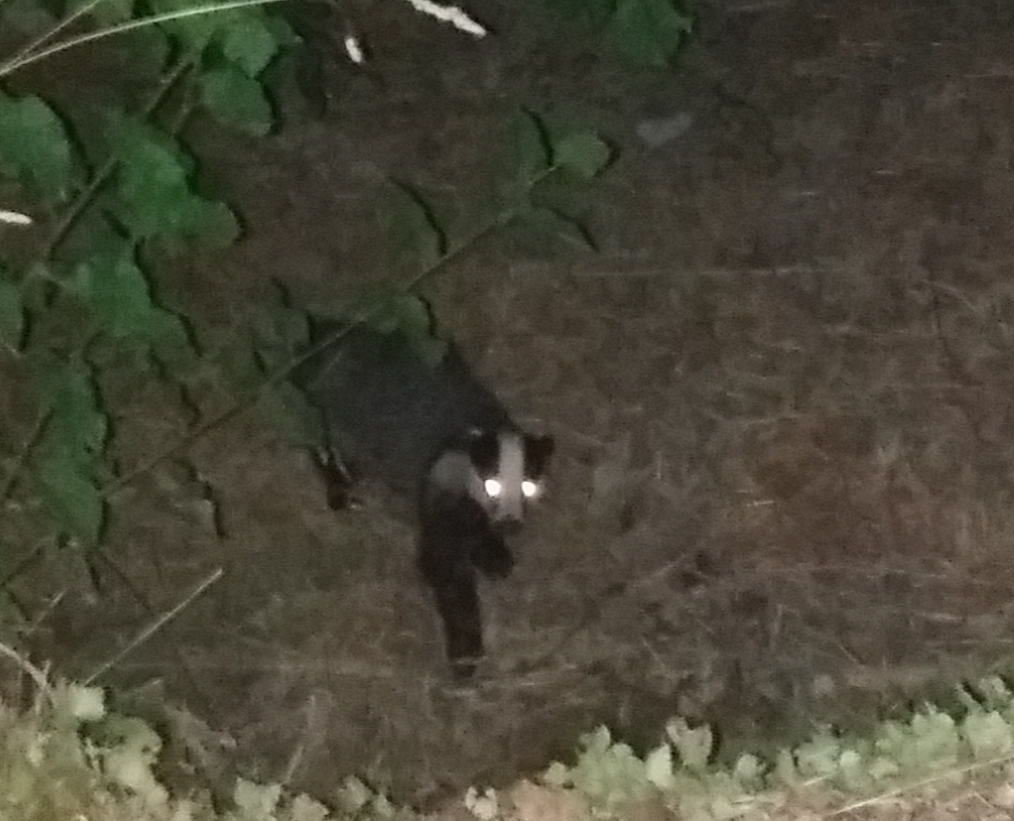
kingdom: Animalia
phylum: Chordata
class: Mammalia
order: Carnivora
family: Mustelidae
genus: Meles
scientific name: Meles meles
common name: Eurasian badger
